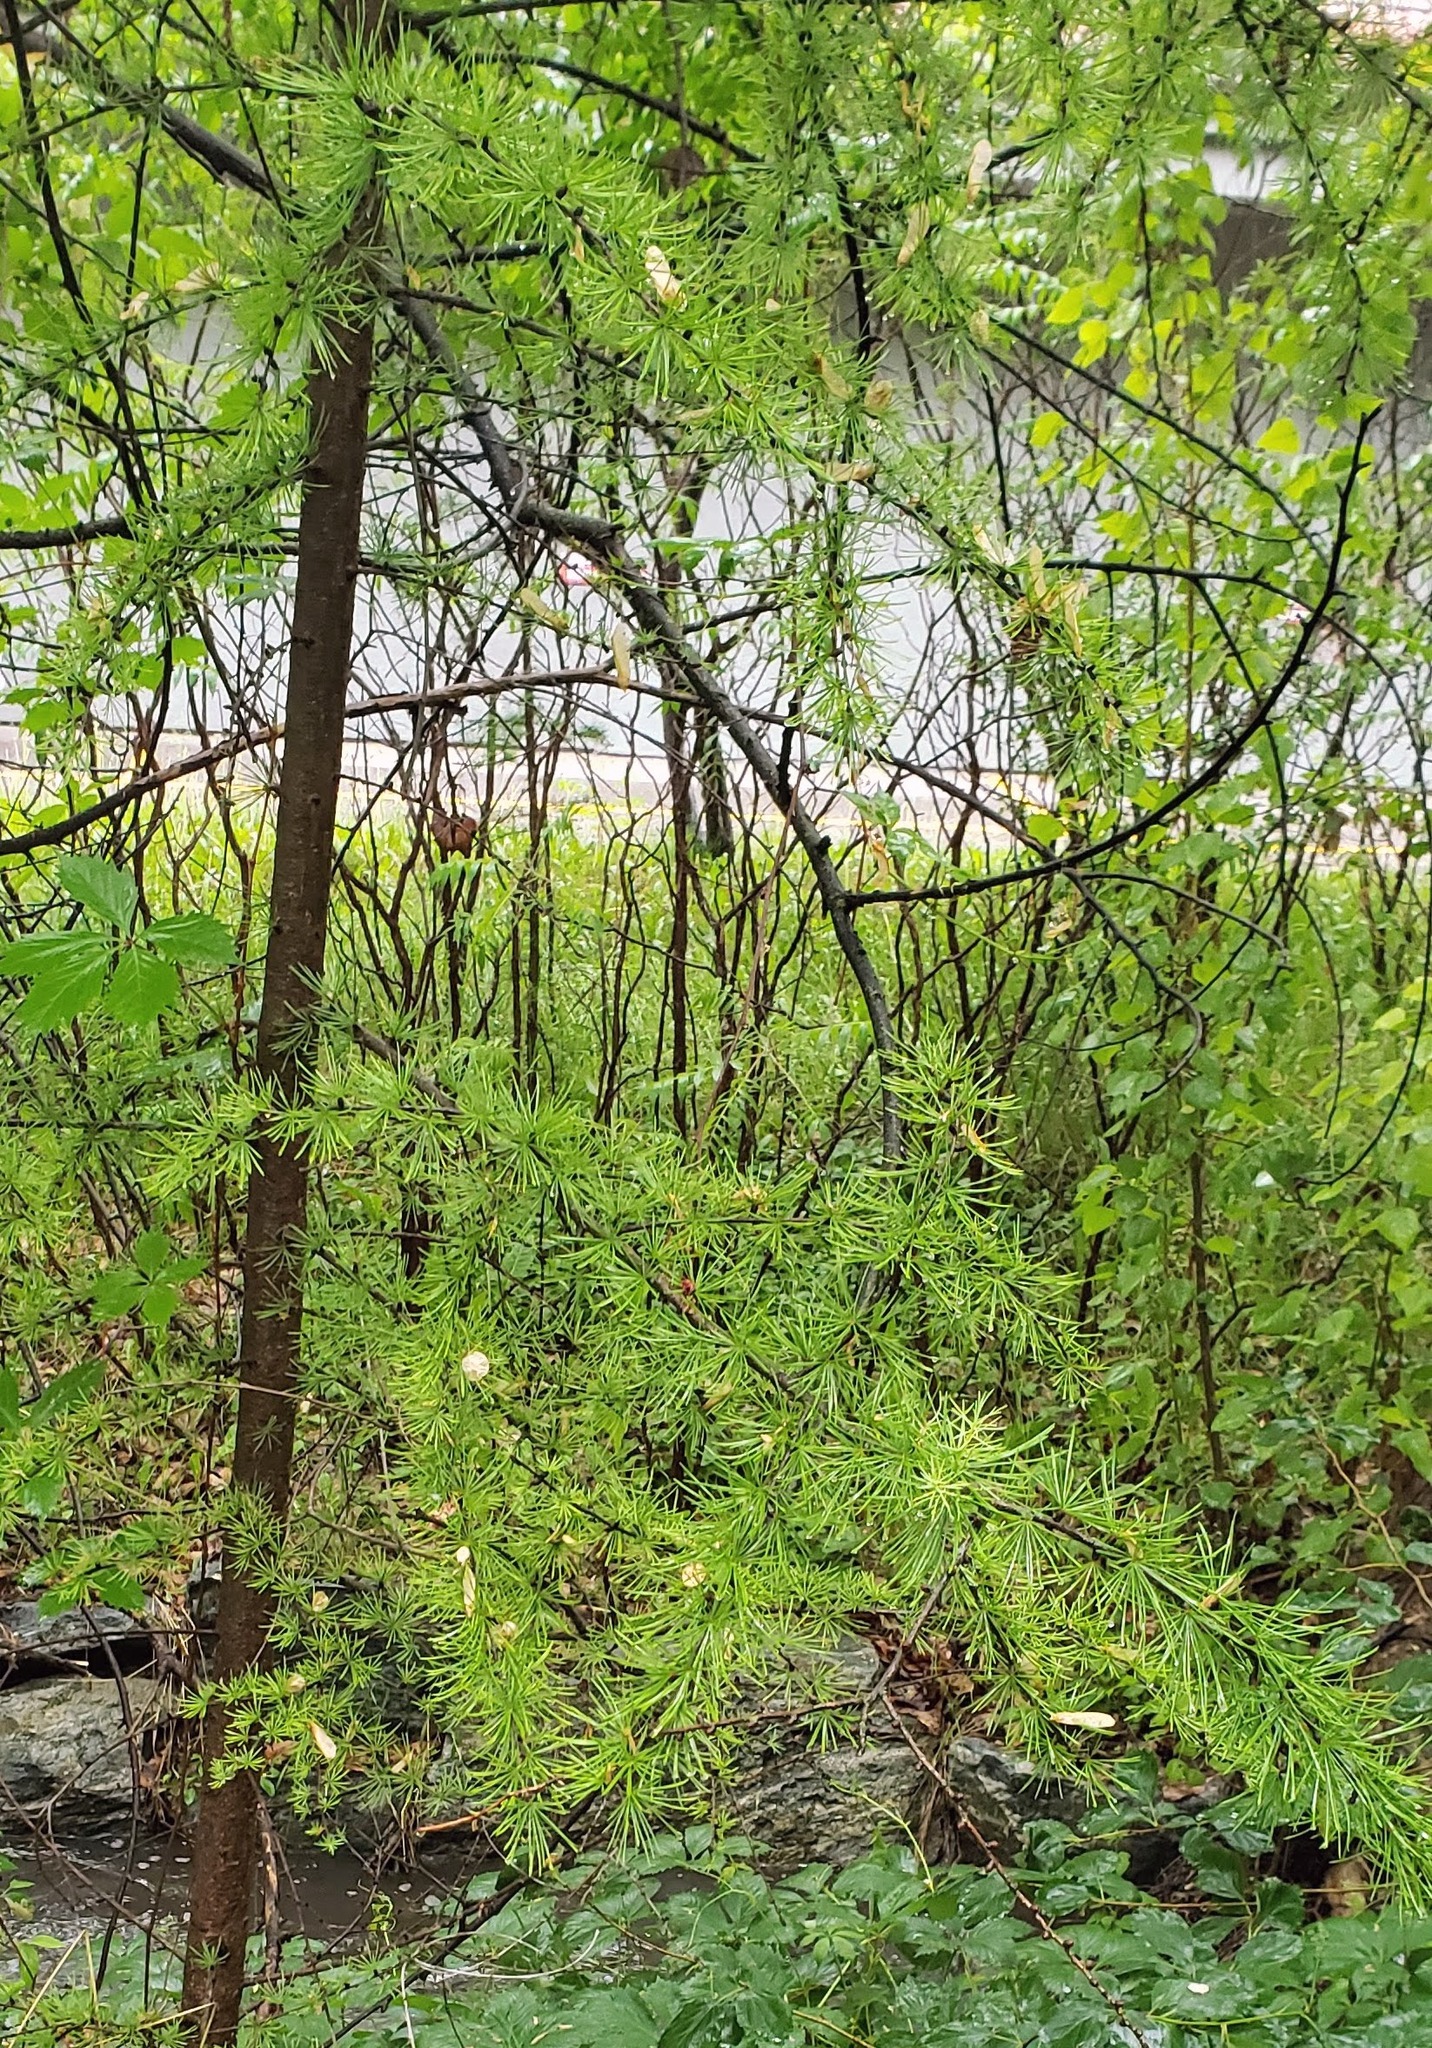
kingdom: Plantae
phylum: Tracheophyta
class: Pinopsida
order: Pinales
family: Pinaceae
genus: Larix
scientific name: Larix occidentalis
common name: Western larch
